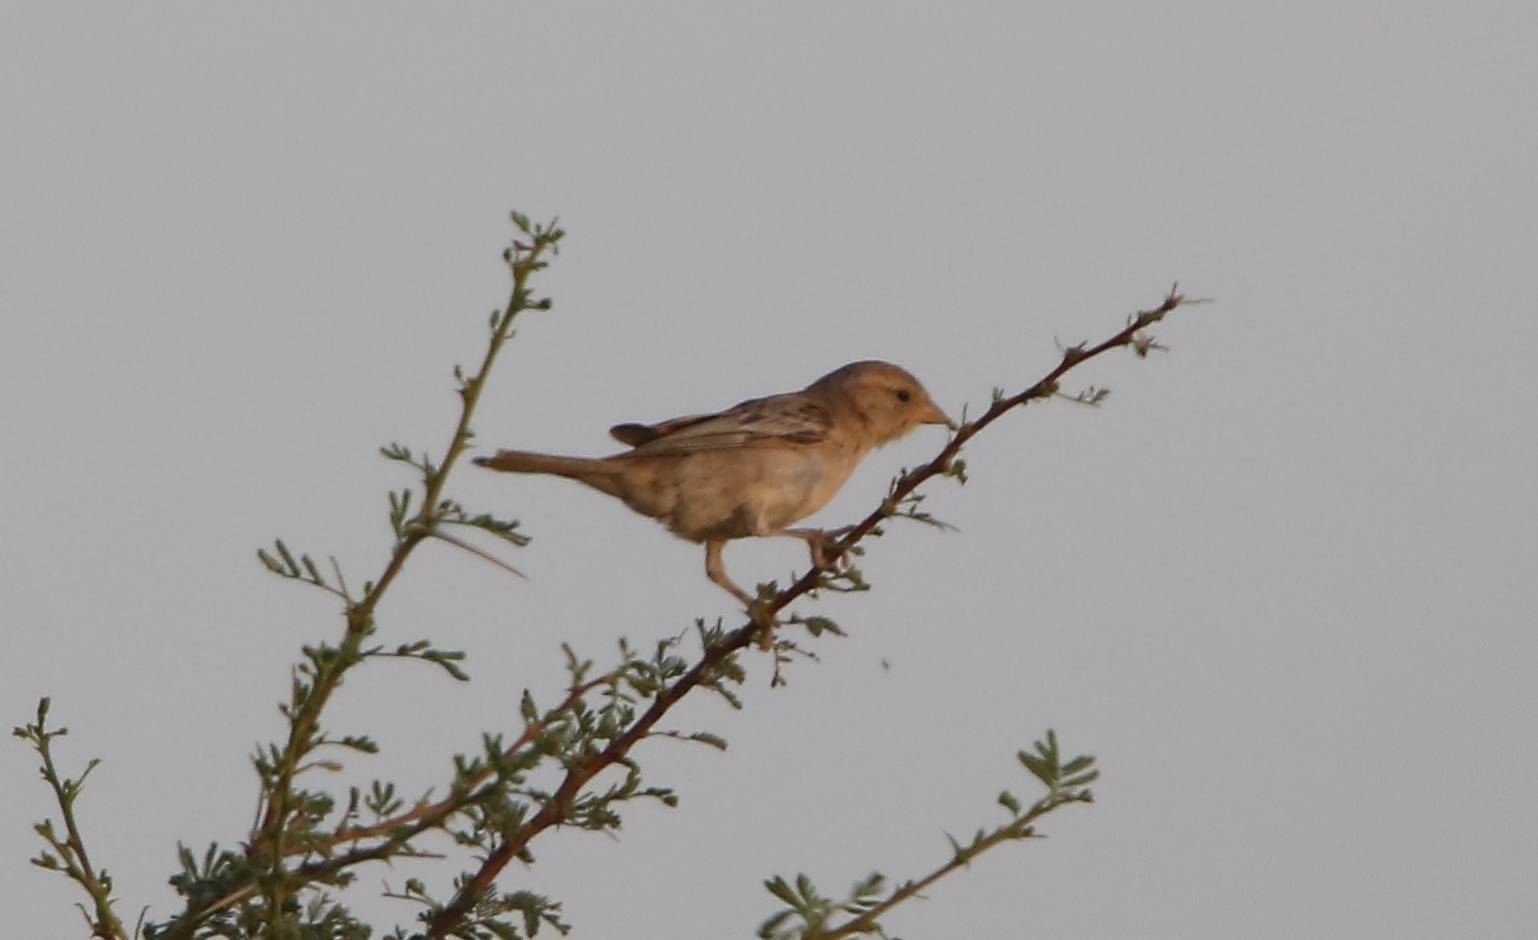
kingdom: Animalia
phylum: Chordata
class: Aves
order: Passeriformes
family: Passeridae
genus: Passer
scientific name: Passer luteus
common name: Sudan golden sparrow
